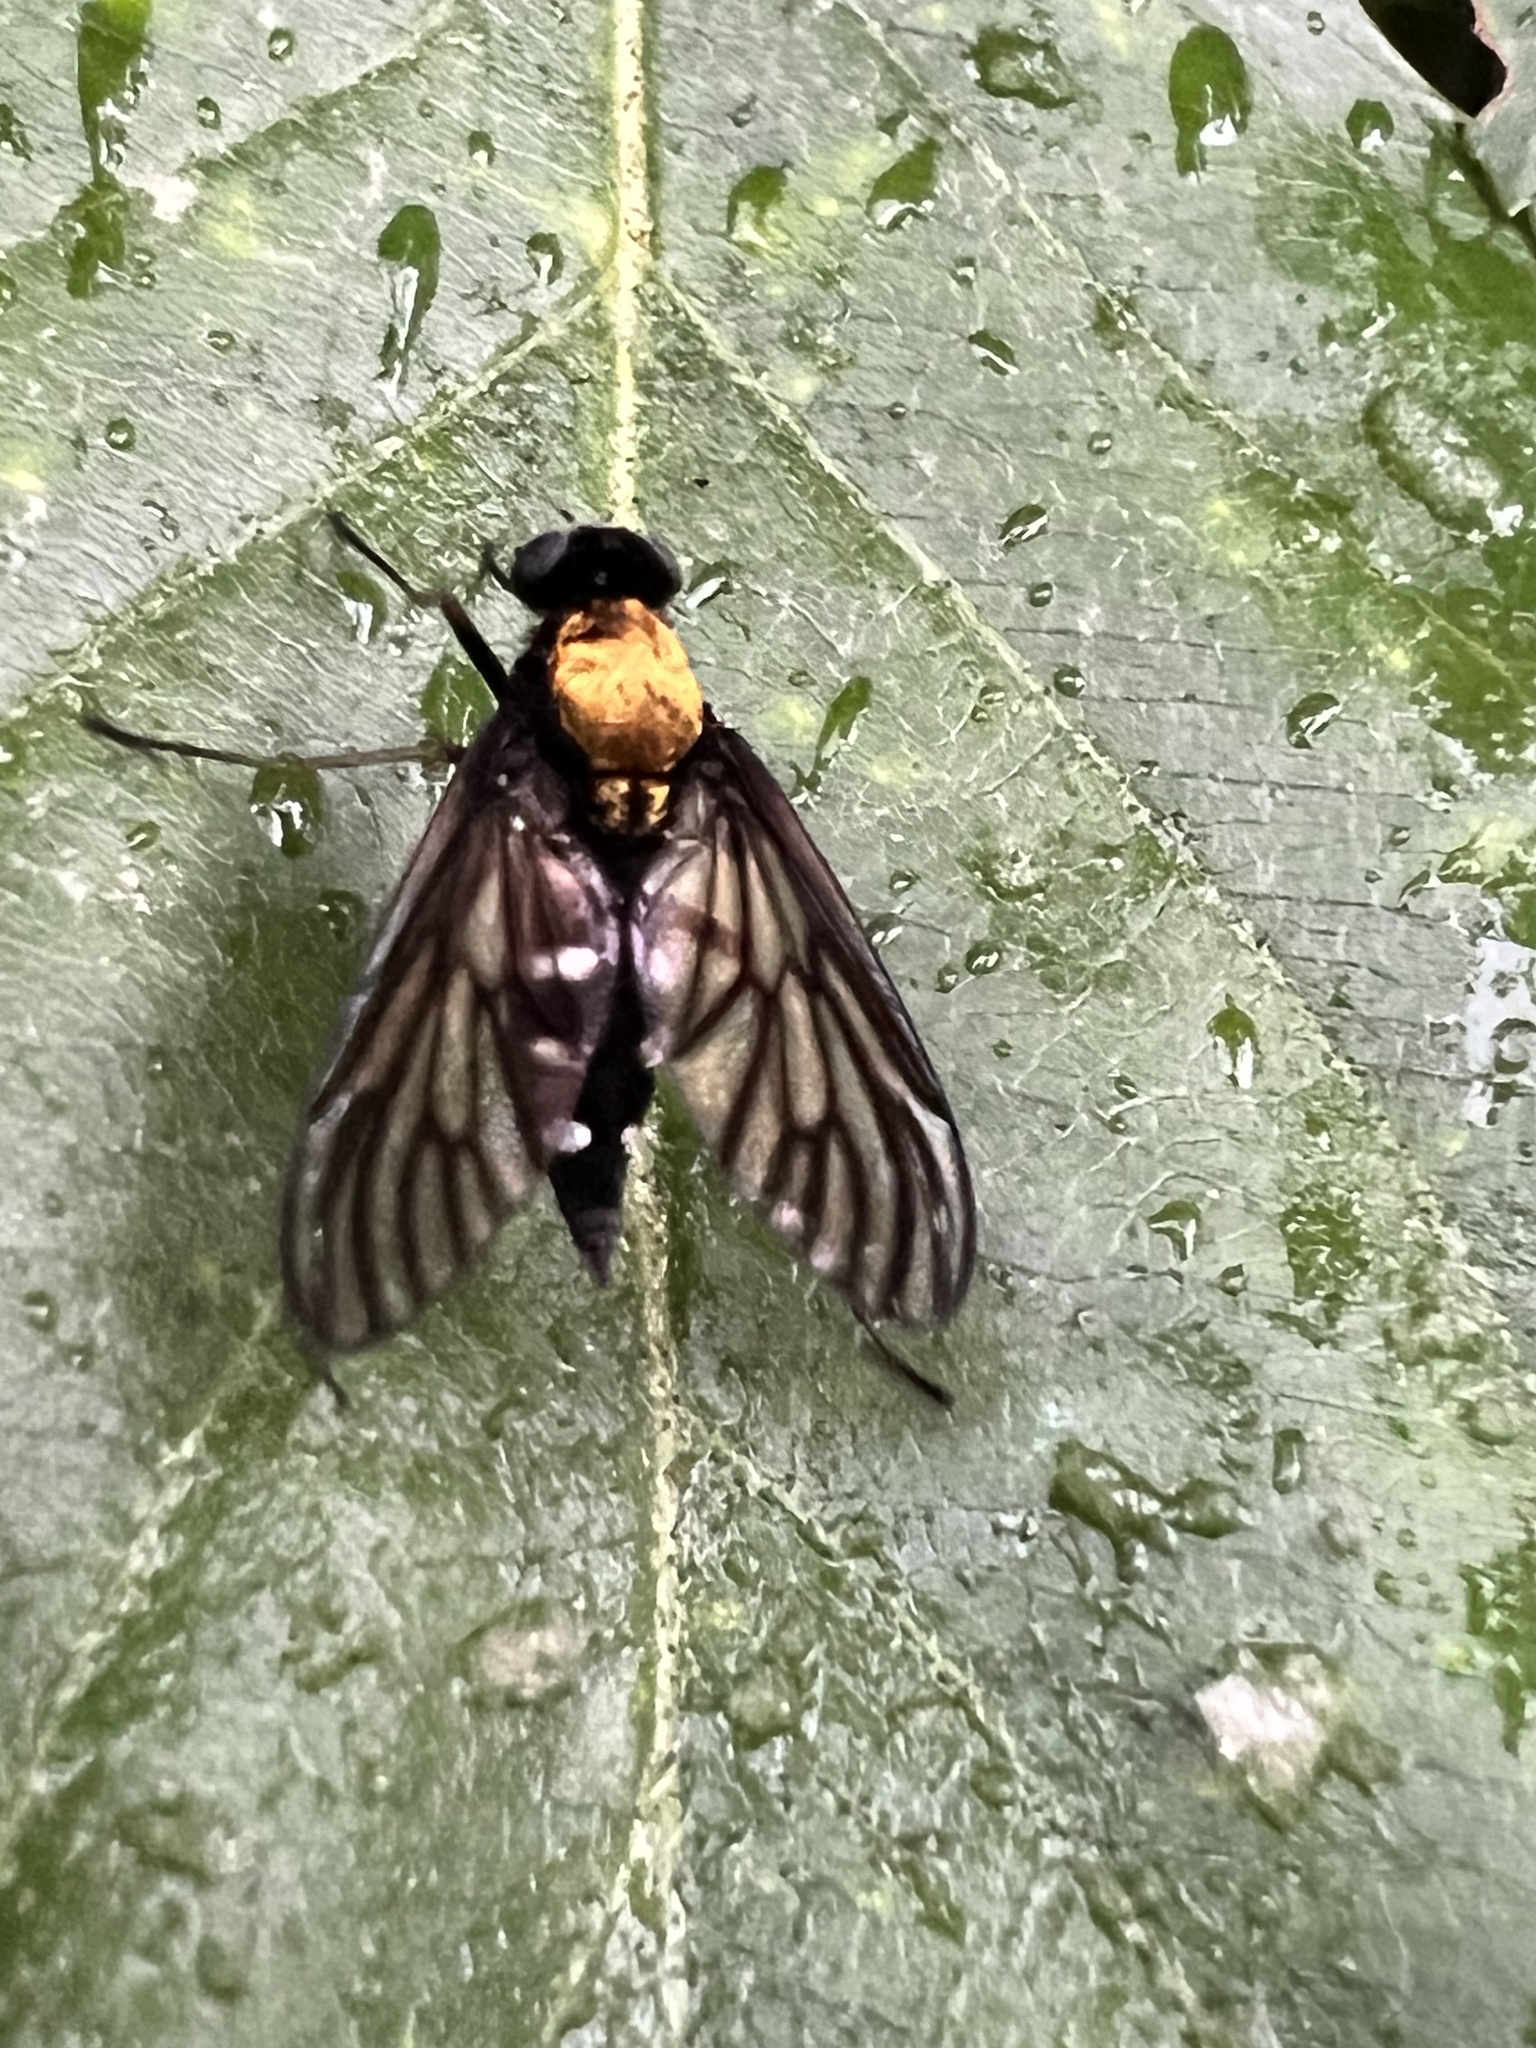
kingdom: Animalia
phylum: Arthropoda
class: Insecta
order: Diptera
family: Rhagionidae
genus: Chrysopilus
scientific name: Chrysopilus thoracicus
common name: Golden-backed snipe fly
